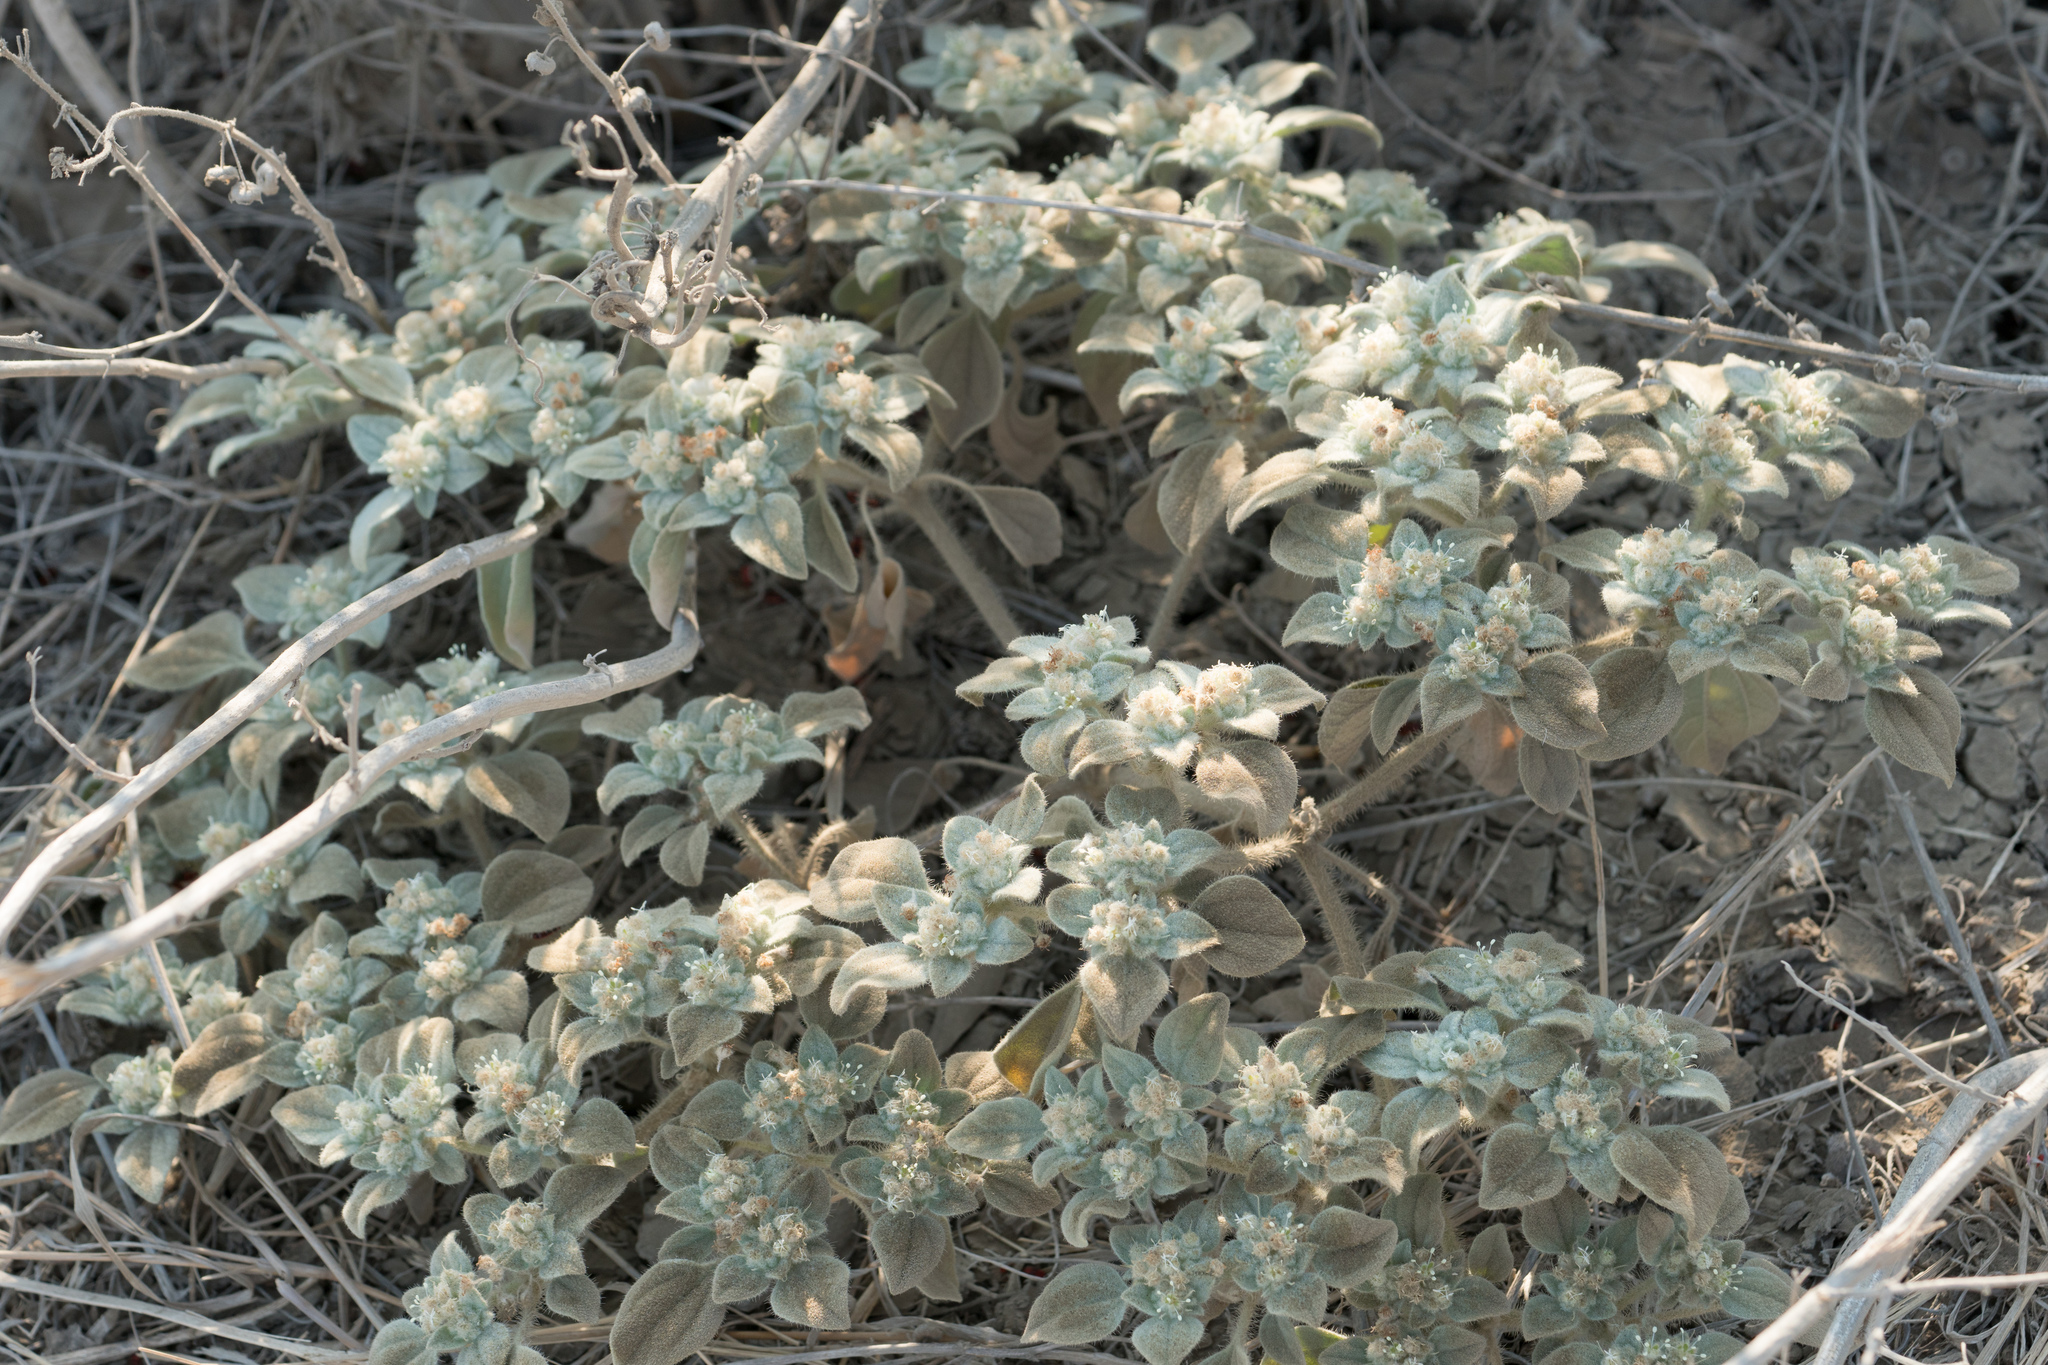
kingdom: Plantae
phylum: Tracheophyta
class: Magnoliopsida
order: Malpighiales
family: Euphorbiaceae
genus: Croton
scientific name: Croton setiger
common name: Dove weed
